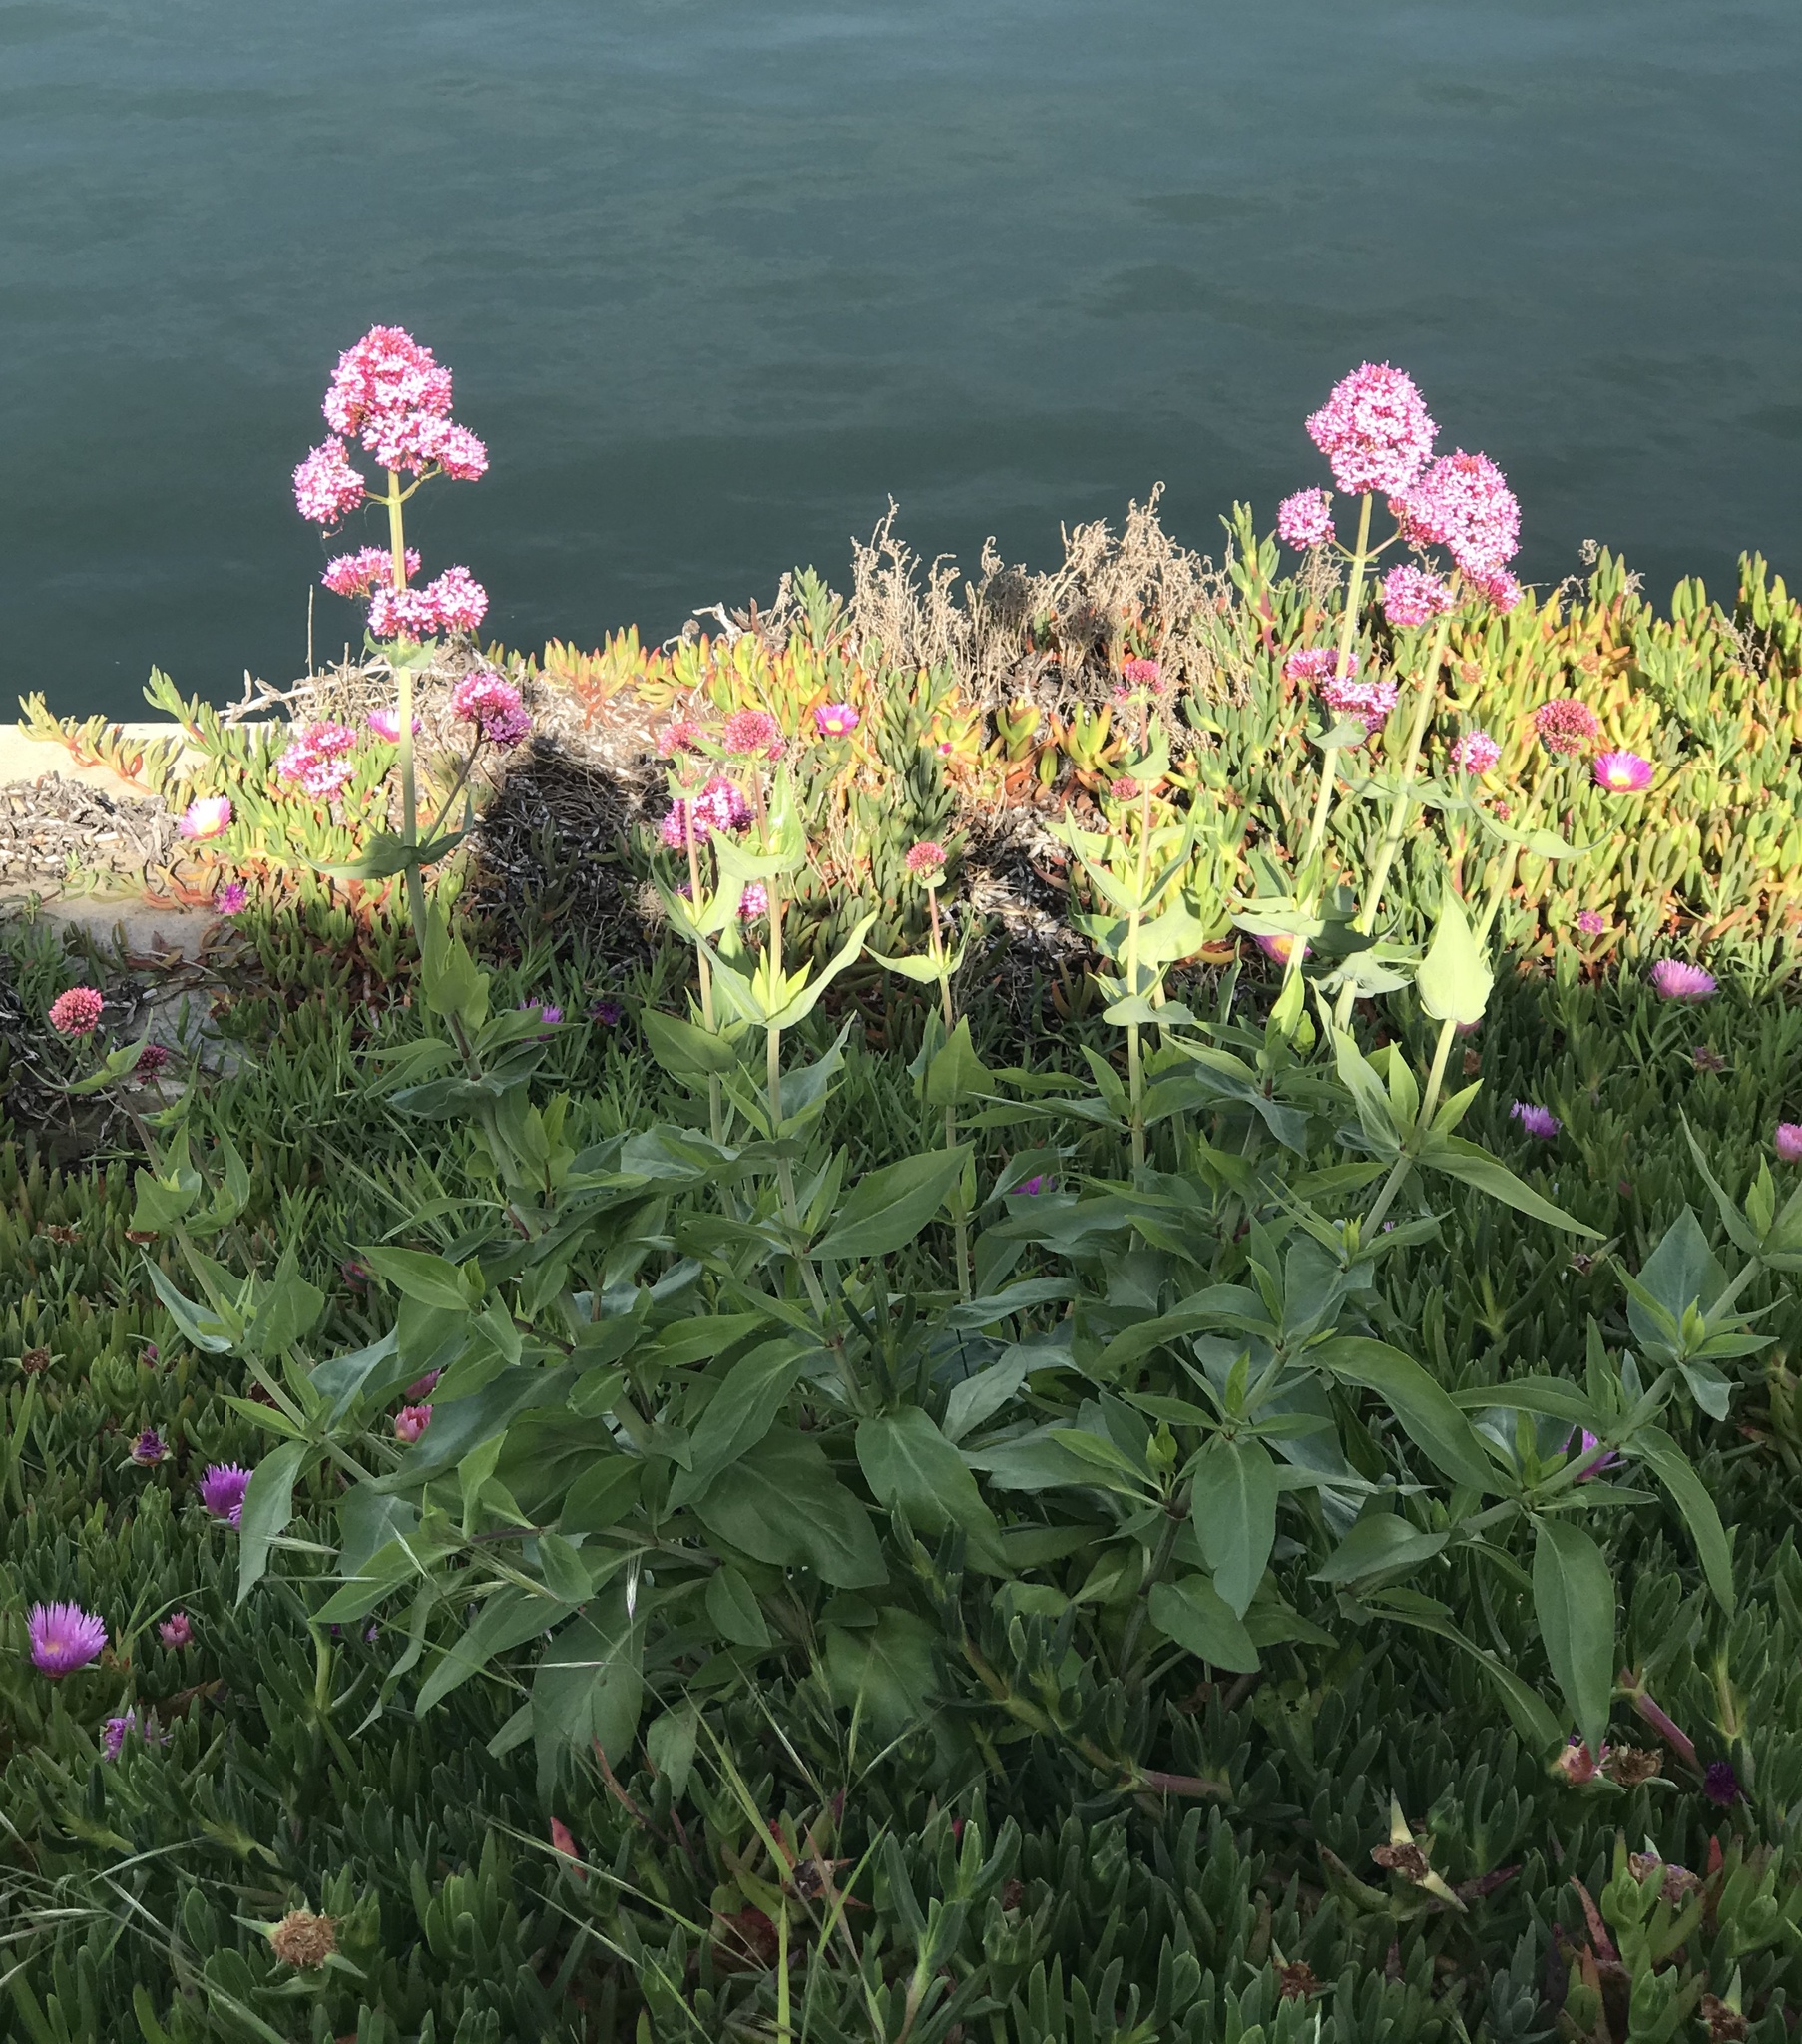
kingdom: Plantae
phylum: Tracheophyta
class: Magnoliopsida
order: Dipsacales
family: Caprifoliaceae
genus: Centranthus
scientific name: Centranthus ruber
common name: Red valerian
